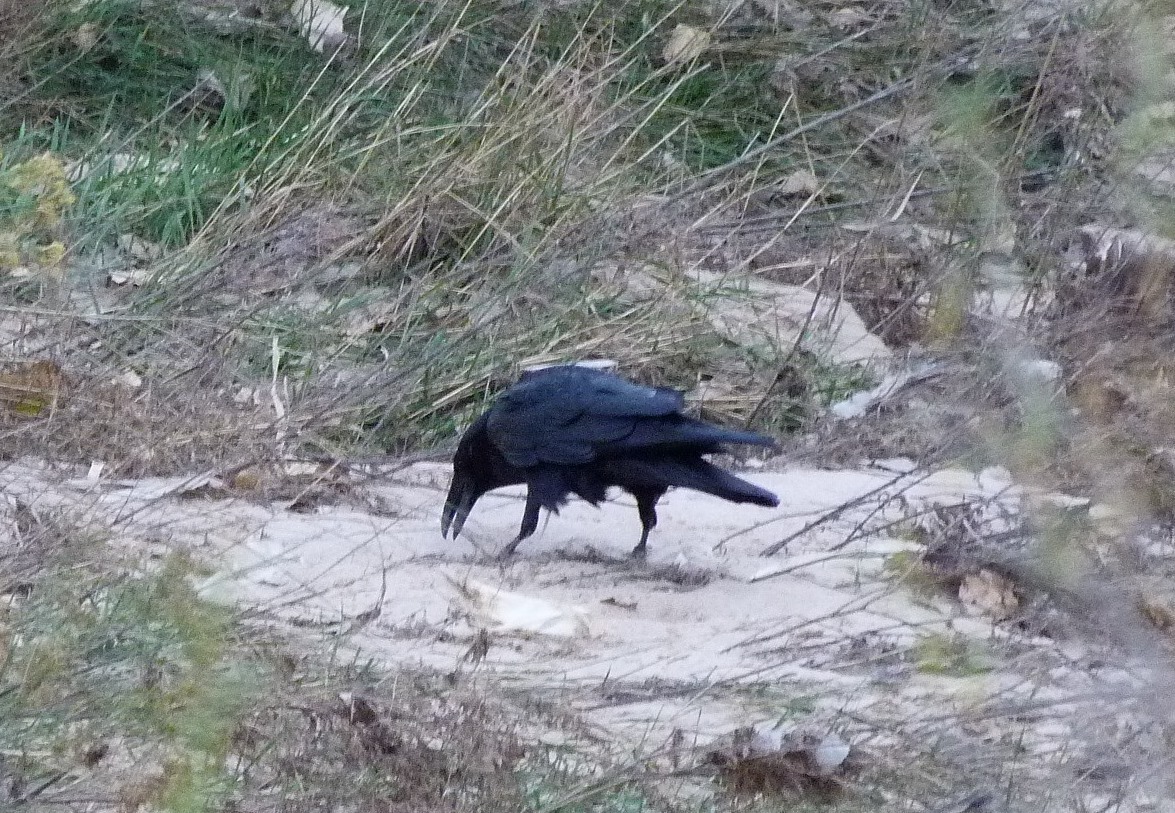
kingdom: Animalia
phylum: Chordata
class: Aves
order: Passeriformes
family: Corvidae
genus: Corvus
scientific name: Corvus corax
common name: Common raven
